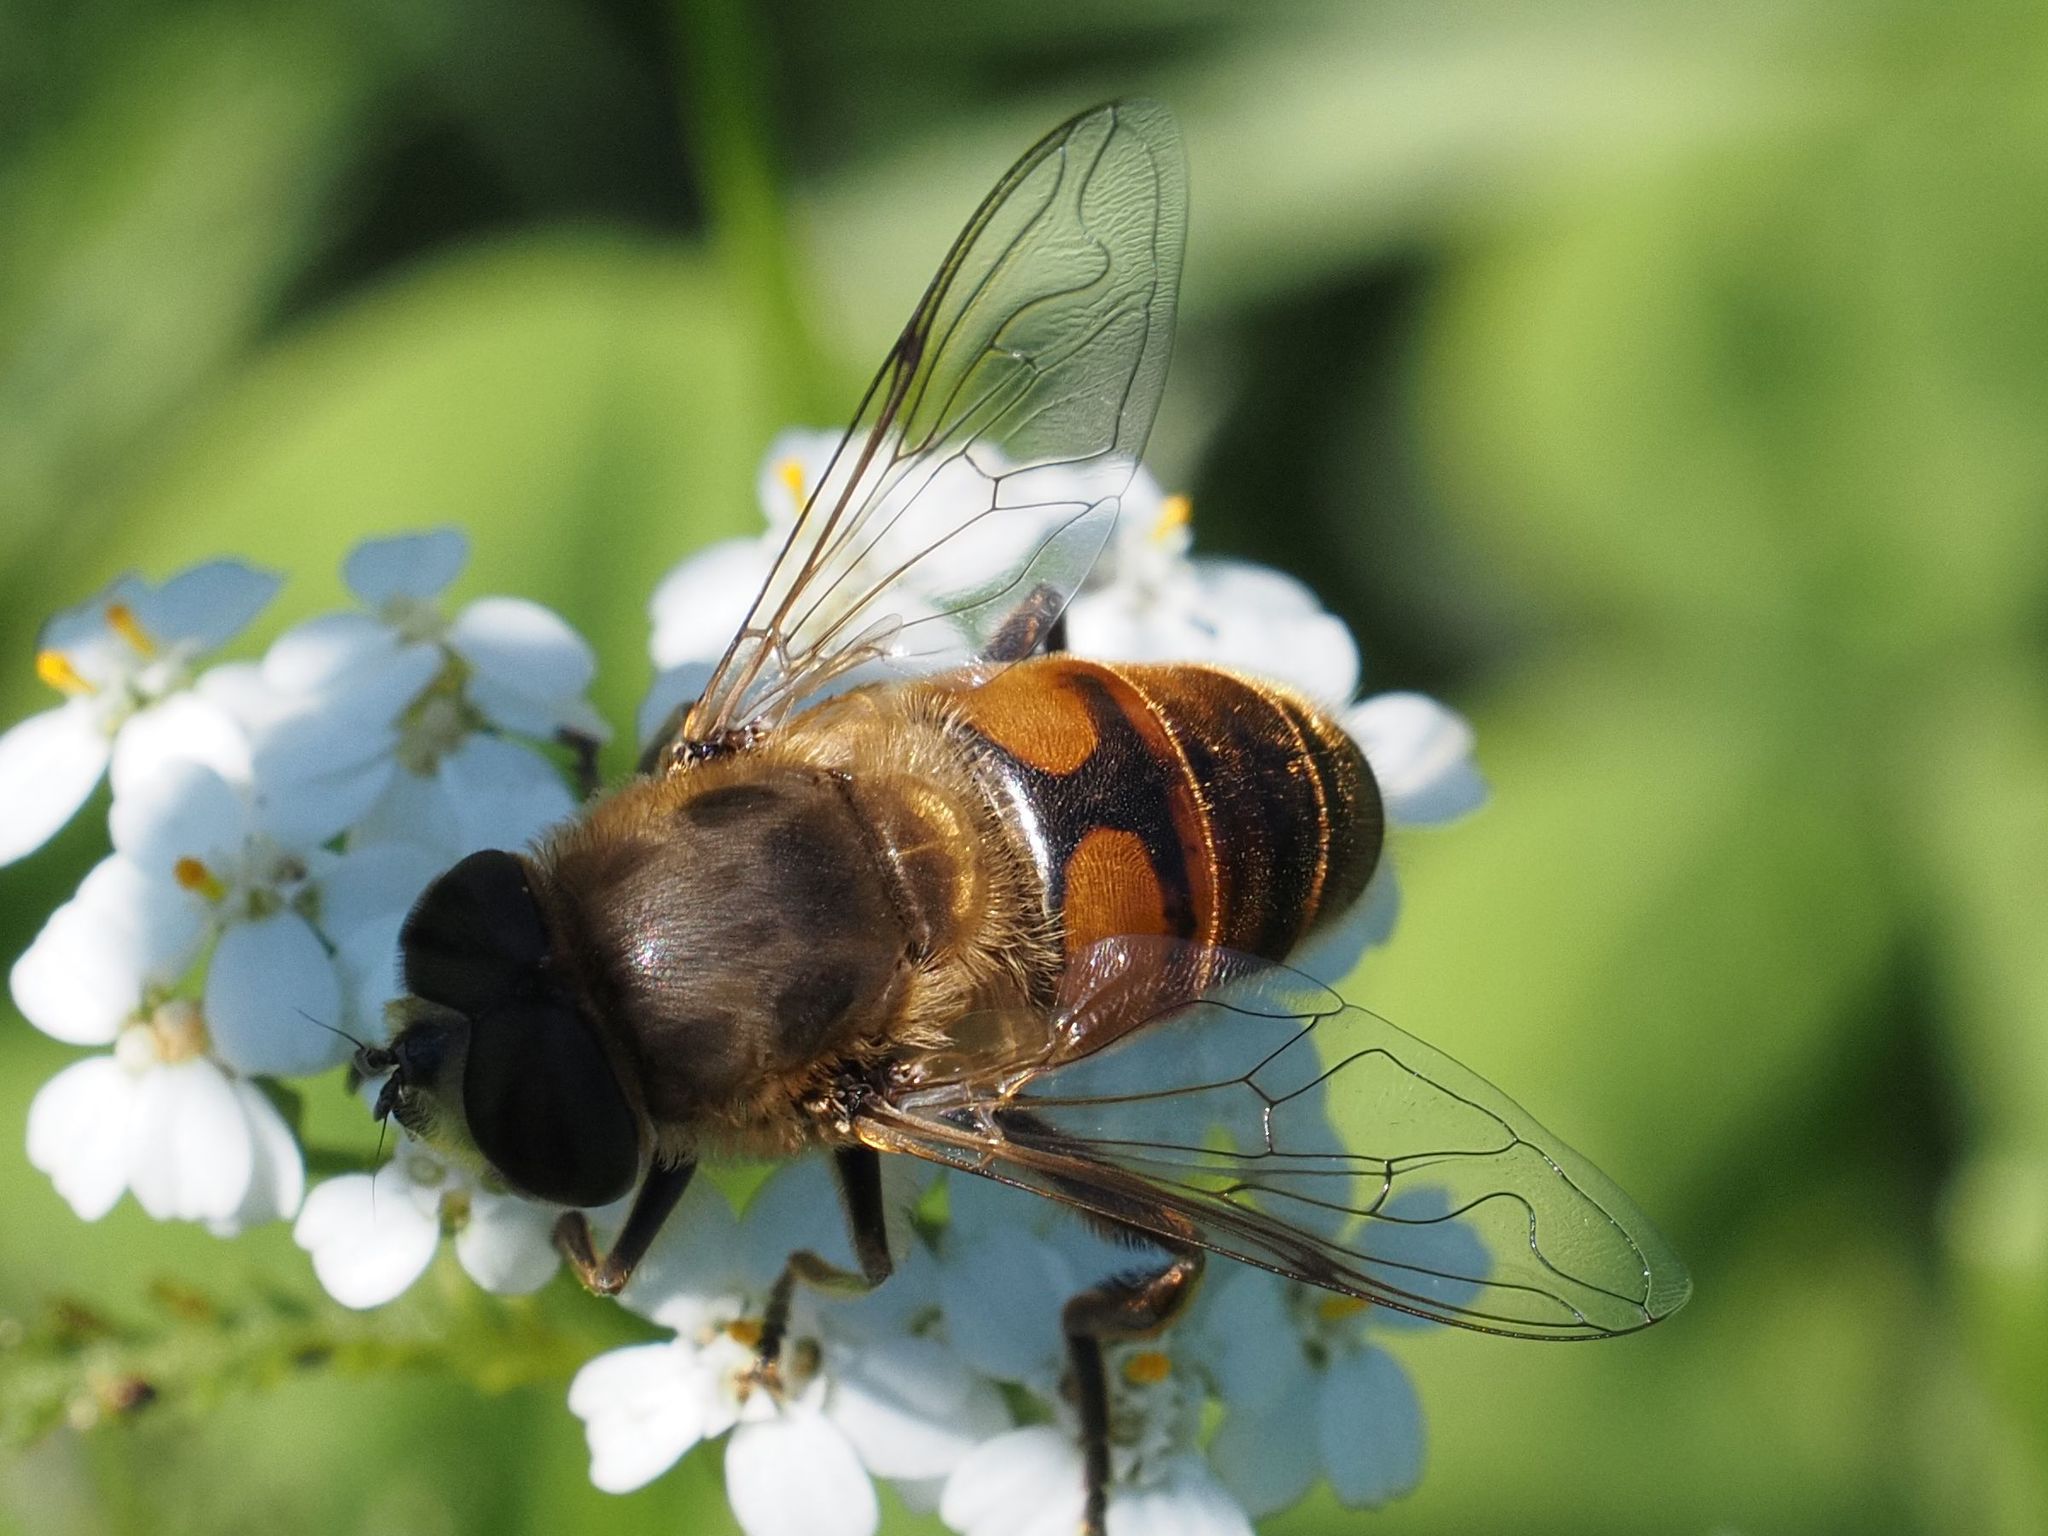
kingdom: Animalia
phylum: Arthropoda
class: Insecta
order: Diptera
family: Syrphidae
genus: Eristalis
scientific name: Eristalis tenax
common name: Drone fly
